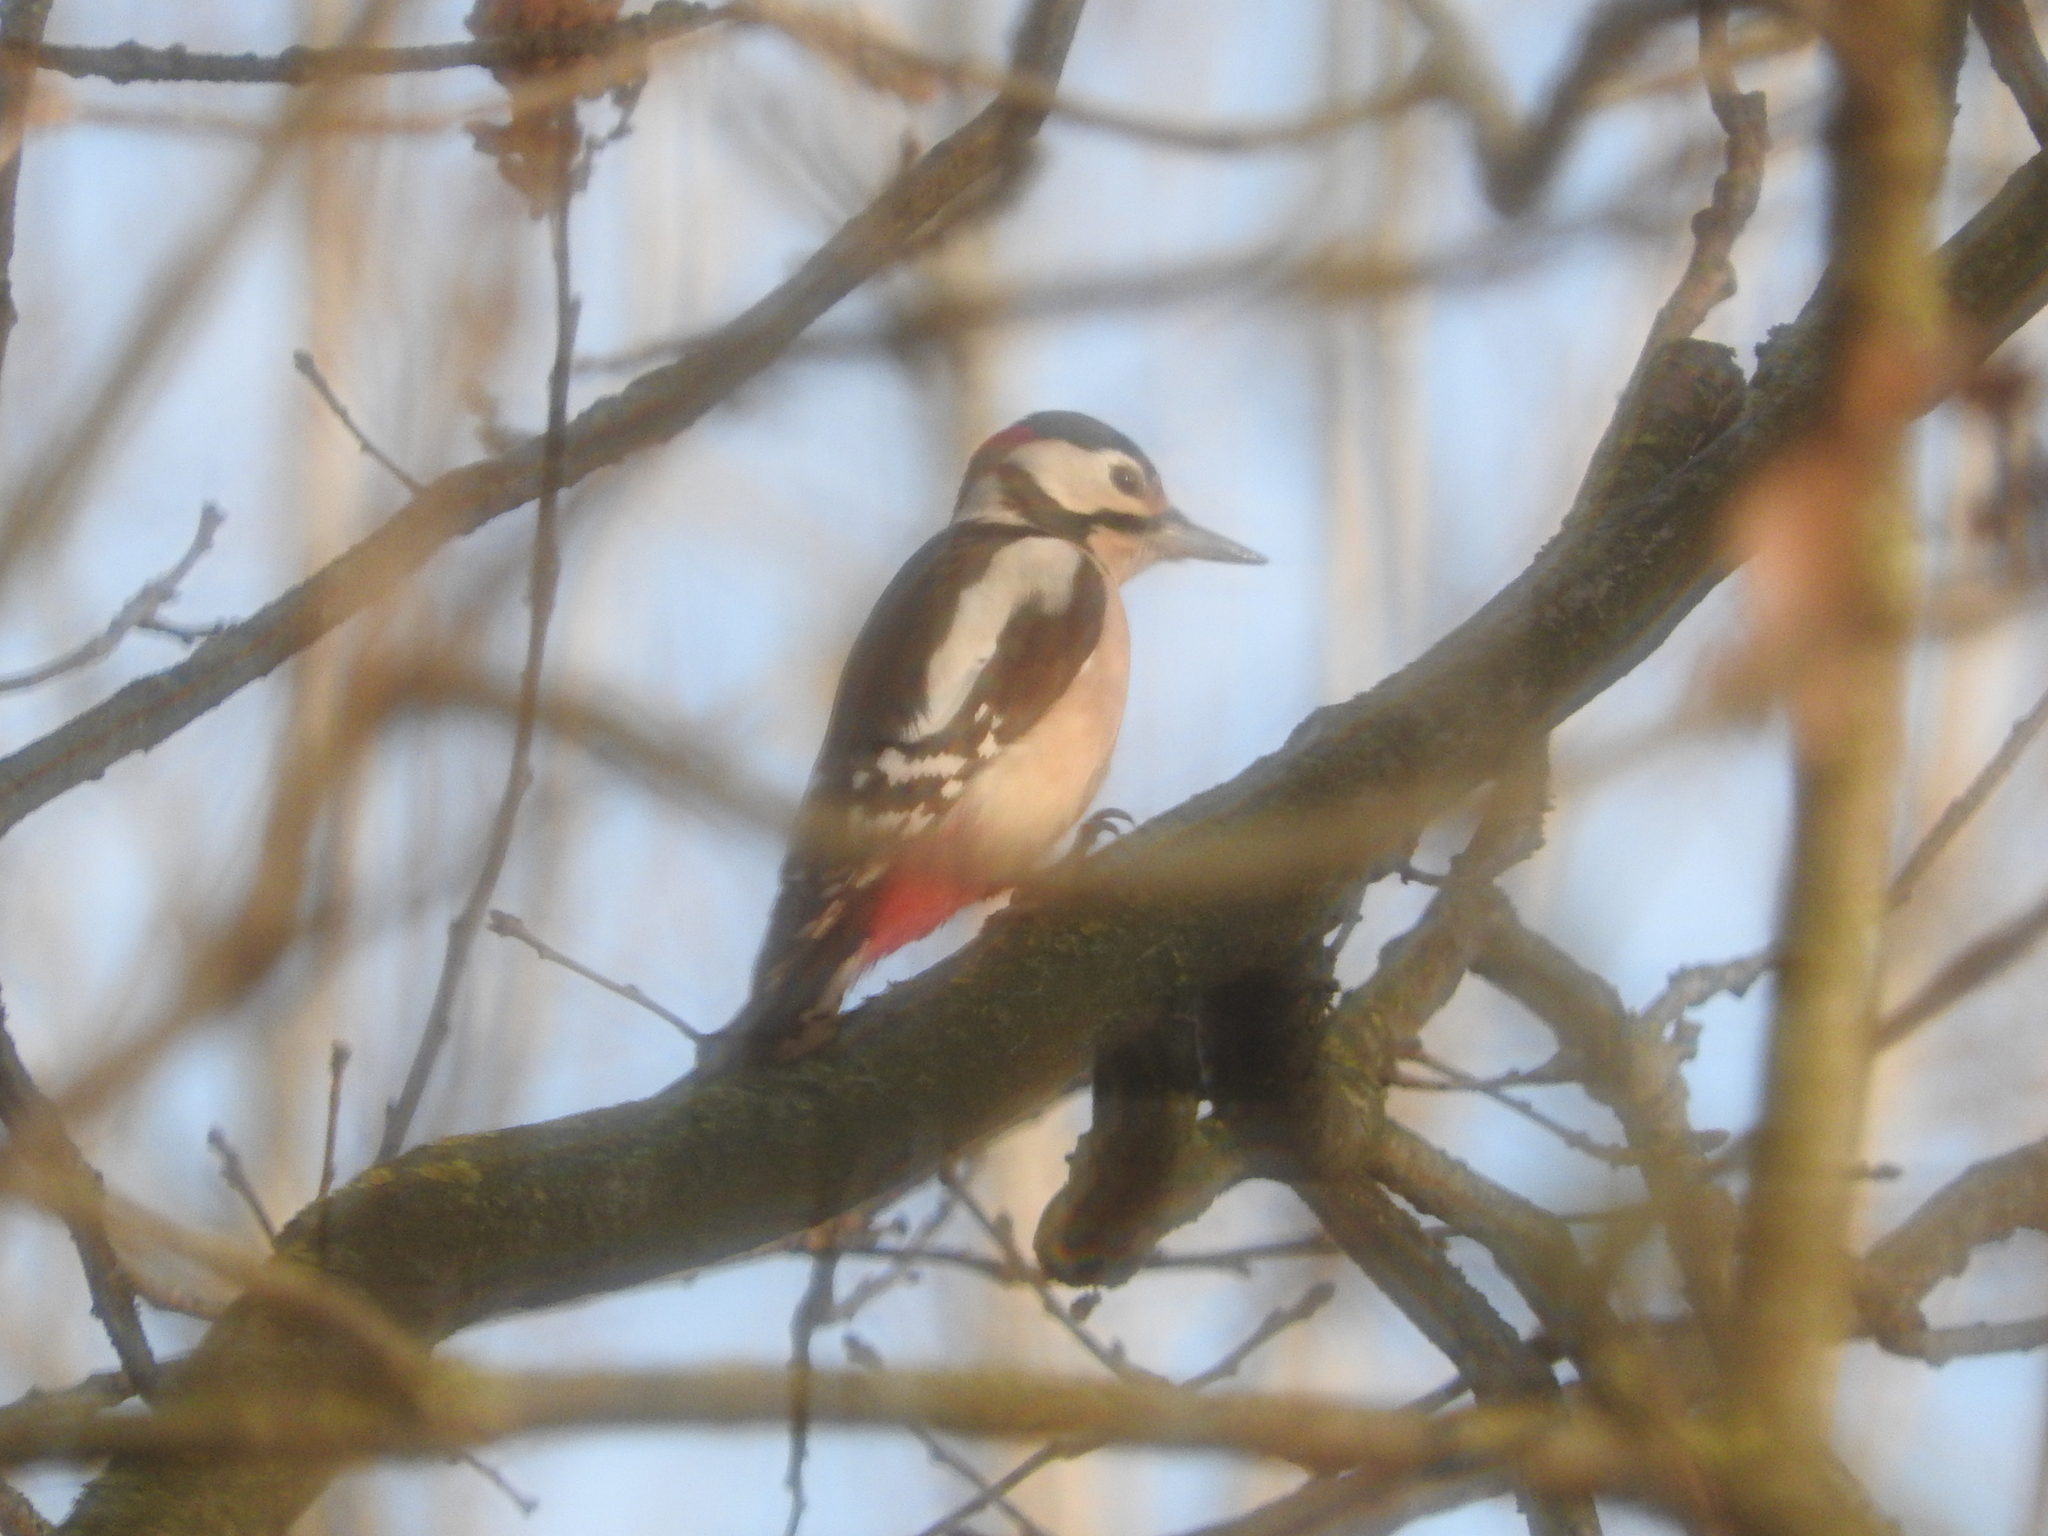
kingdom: Animalia
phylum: Chordata
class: Aves
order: Piciformes
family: Picidae
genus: Dendrocopos
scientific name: Dendrocopos major
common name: Great spotted woodpecker
